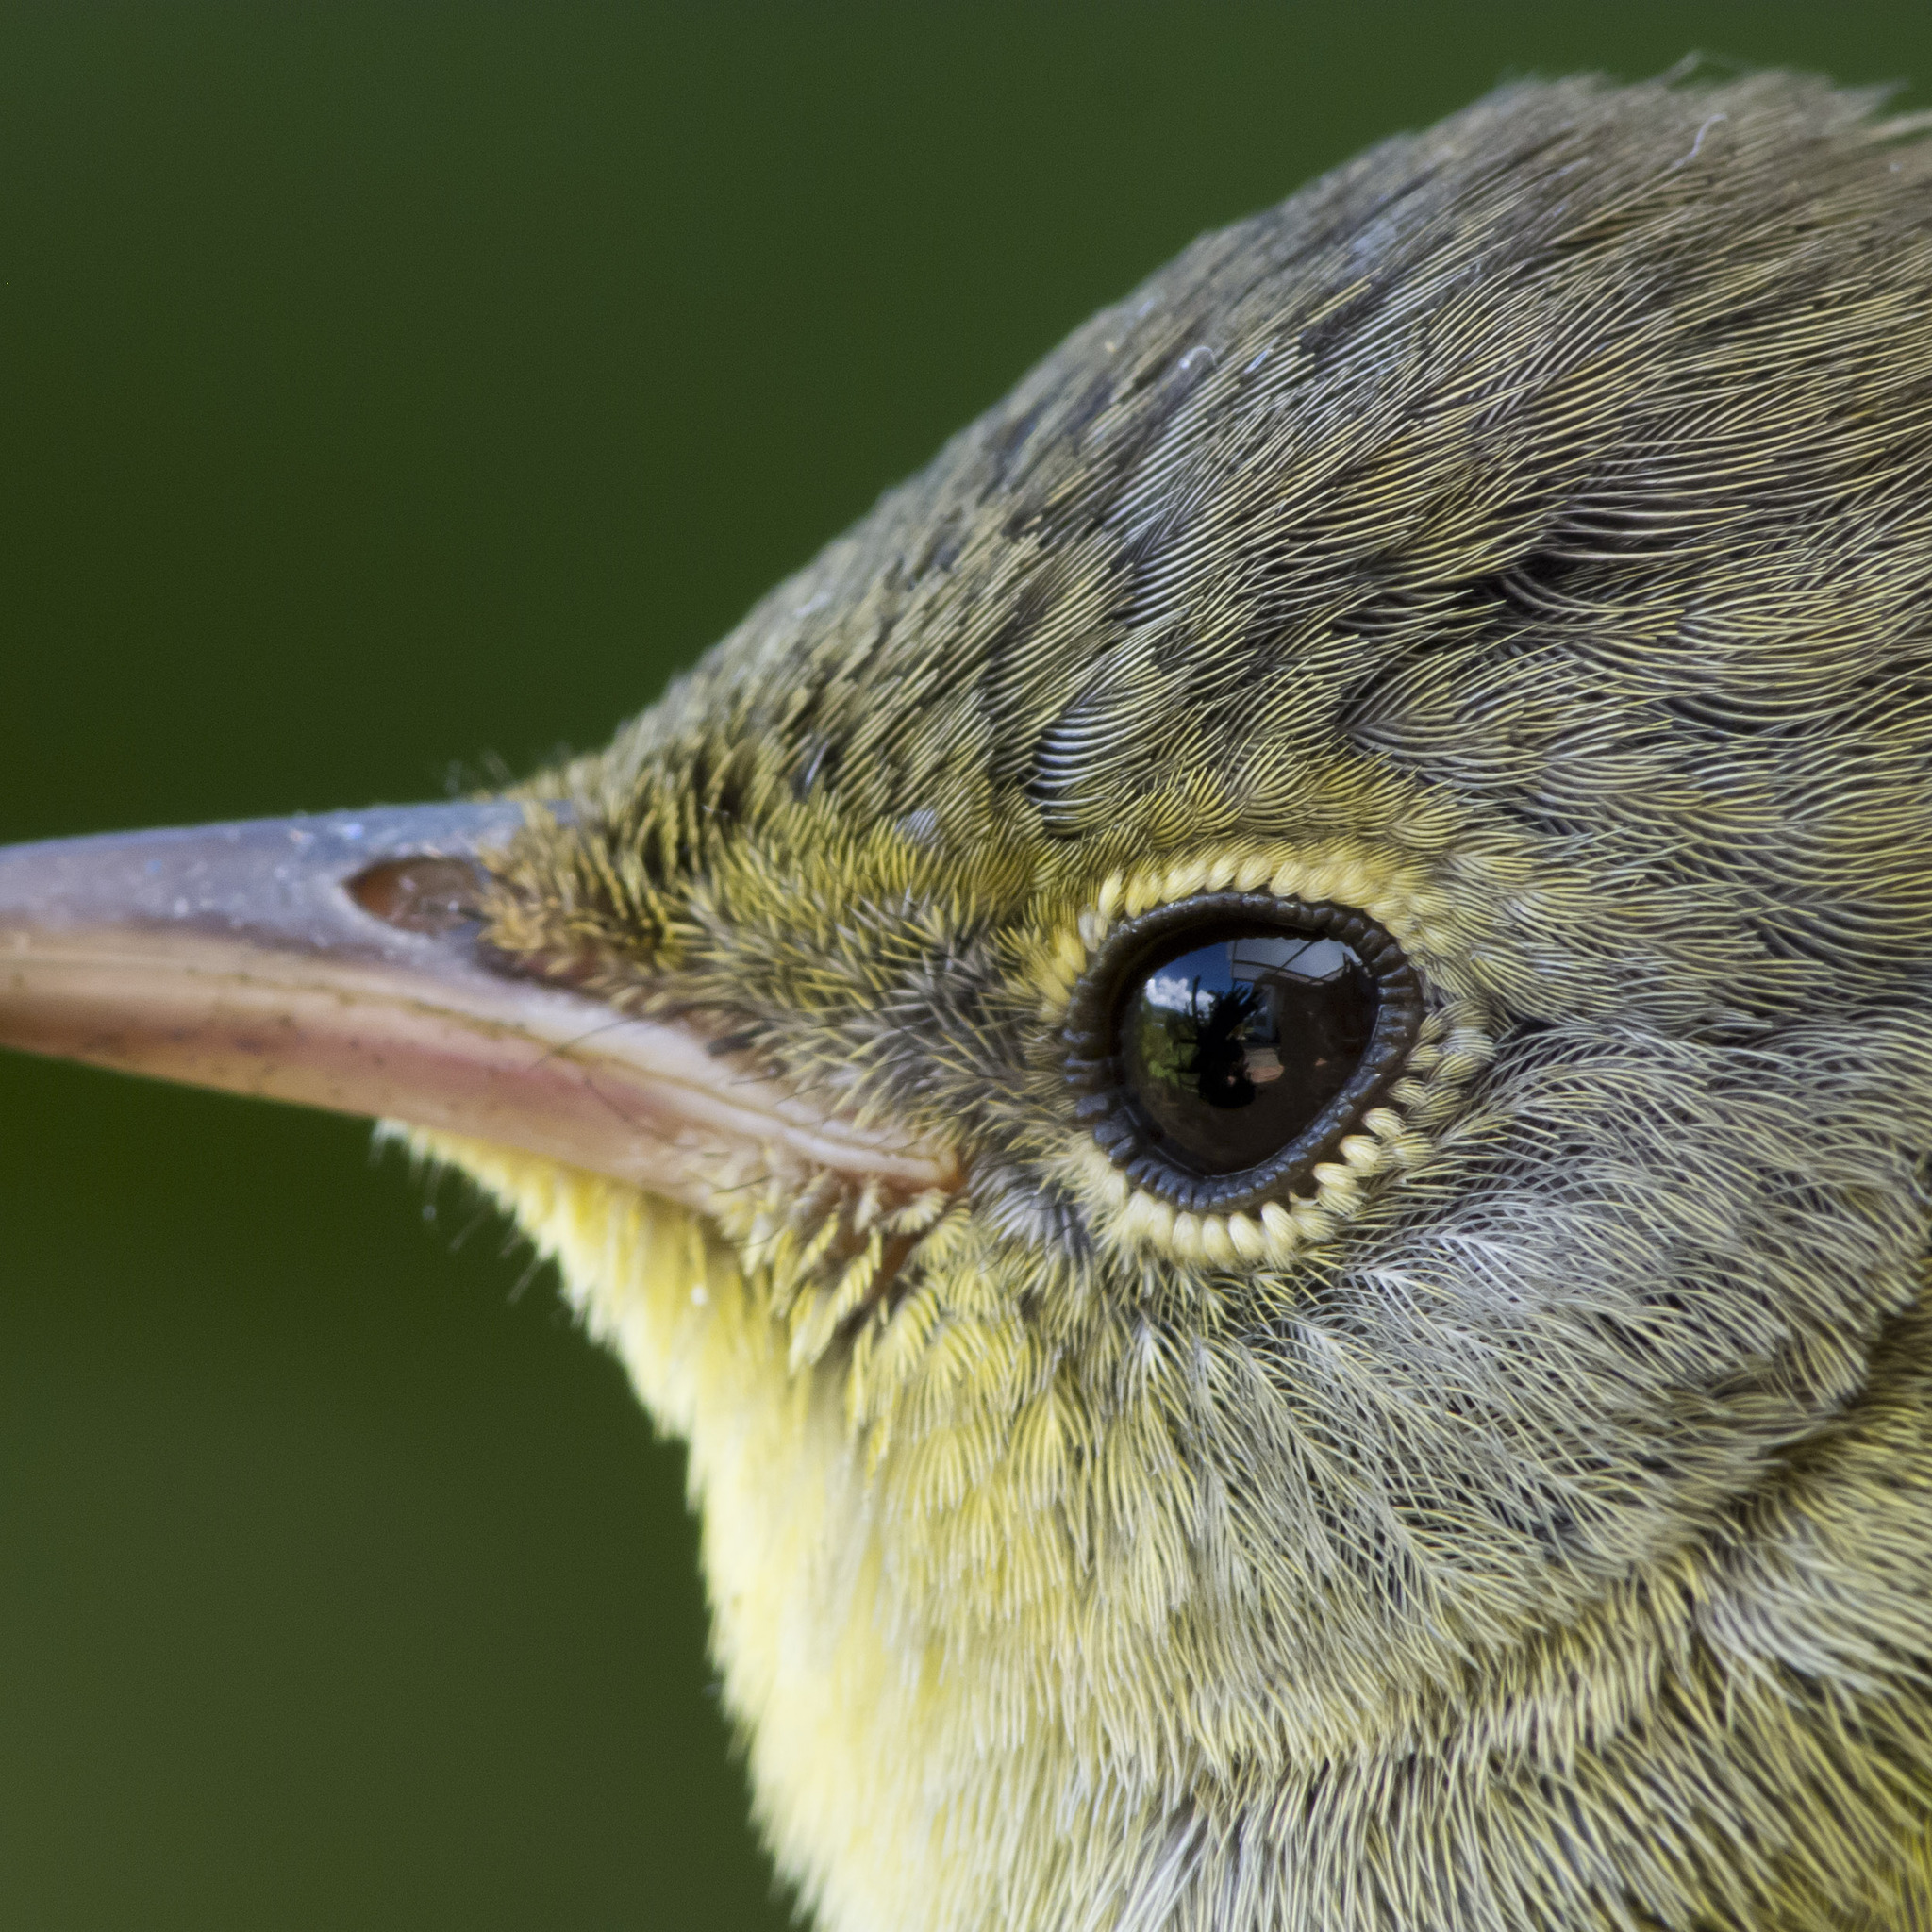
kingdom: Animalia
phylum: Chordata
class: Aves
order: Passeriformes
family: Parulidae
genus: Geothlypis
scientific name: Geothlypis philadelphia
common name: Mourning warbler
